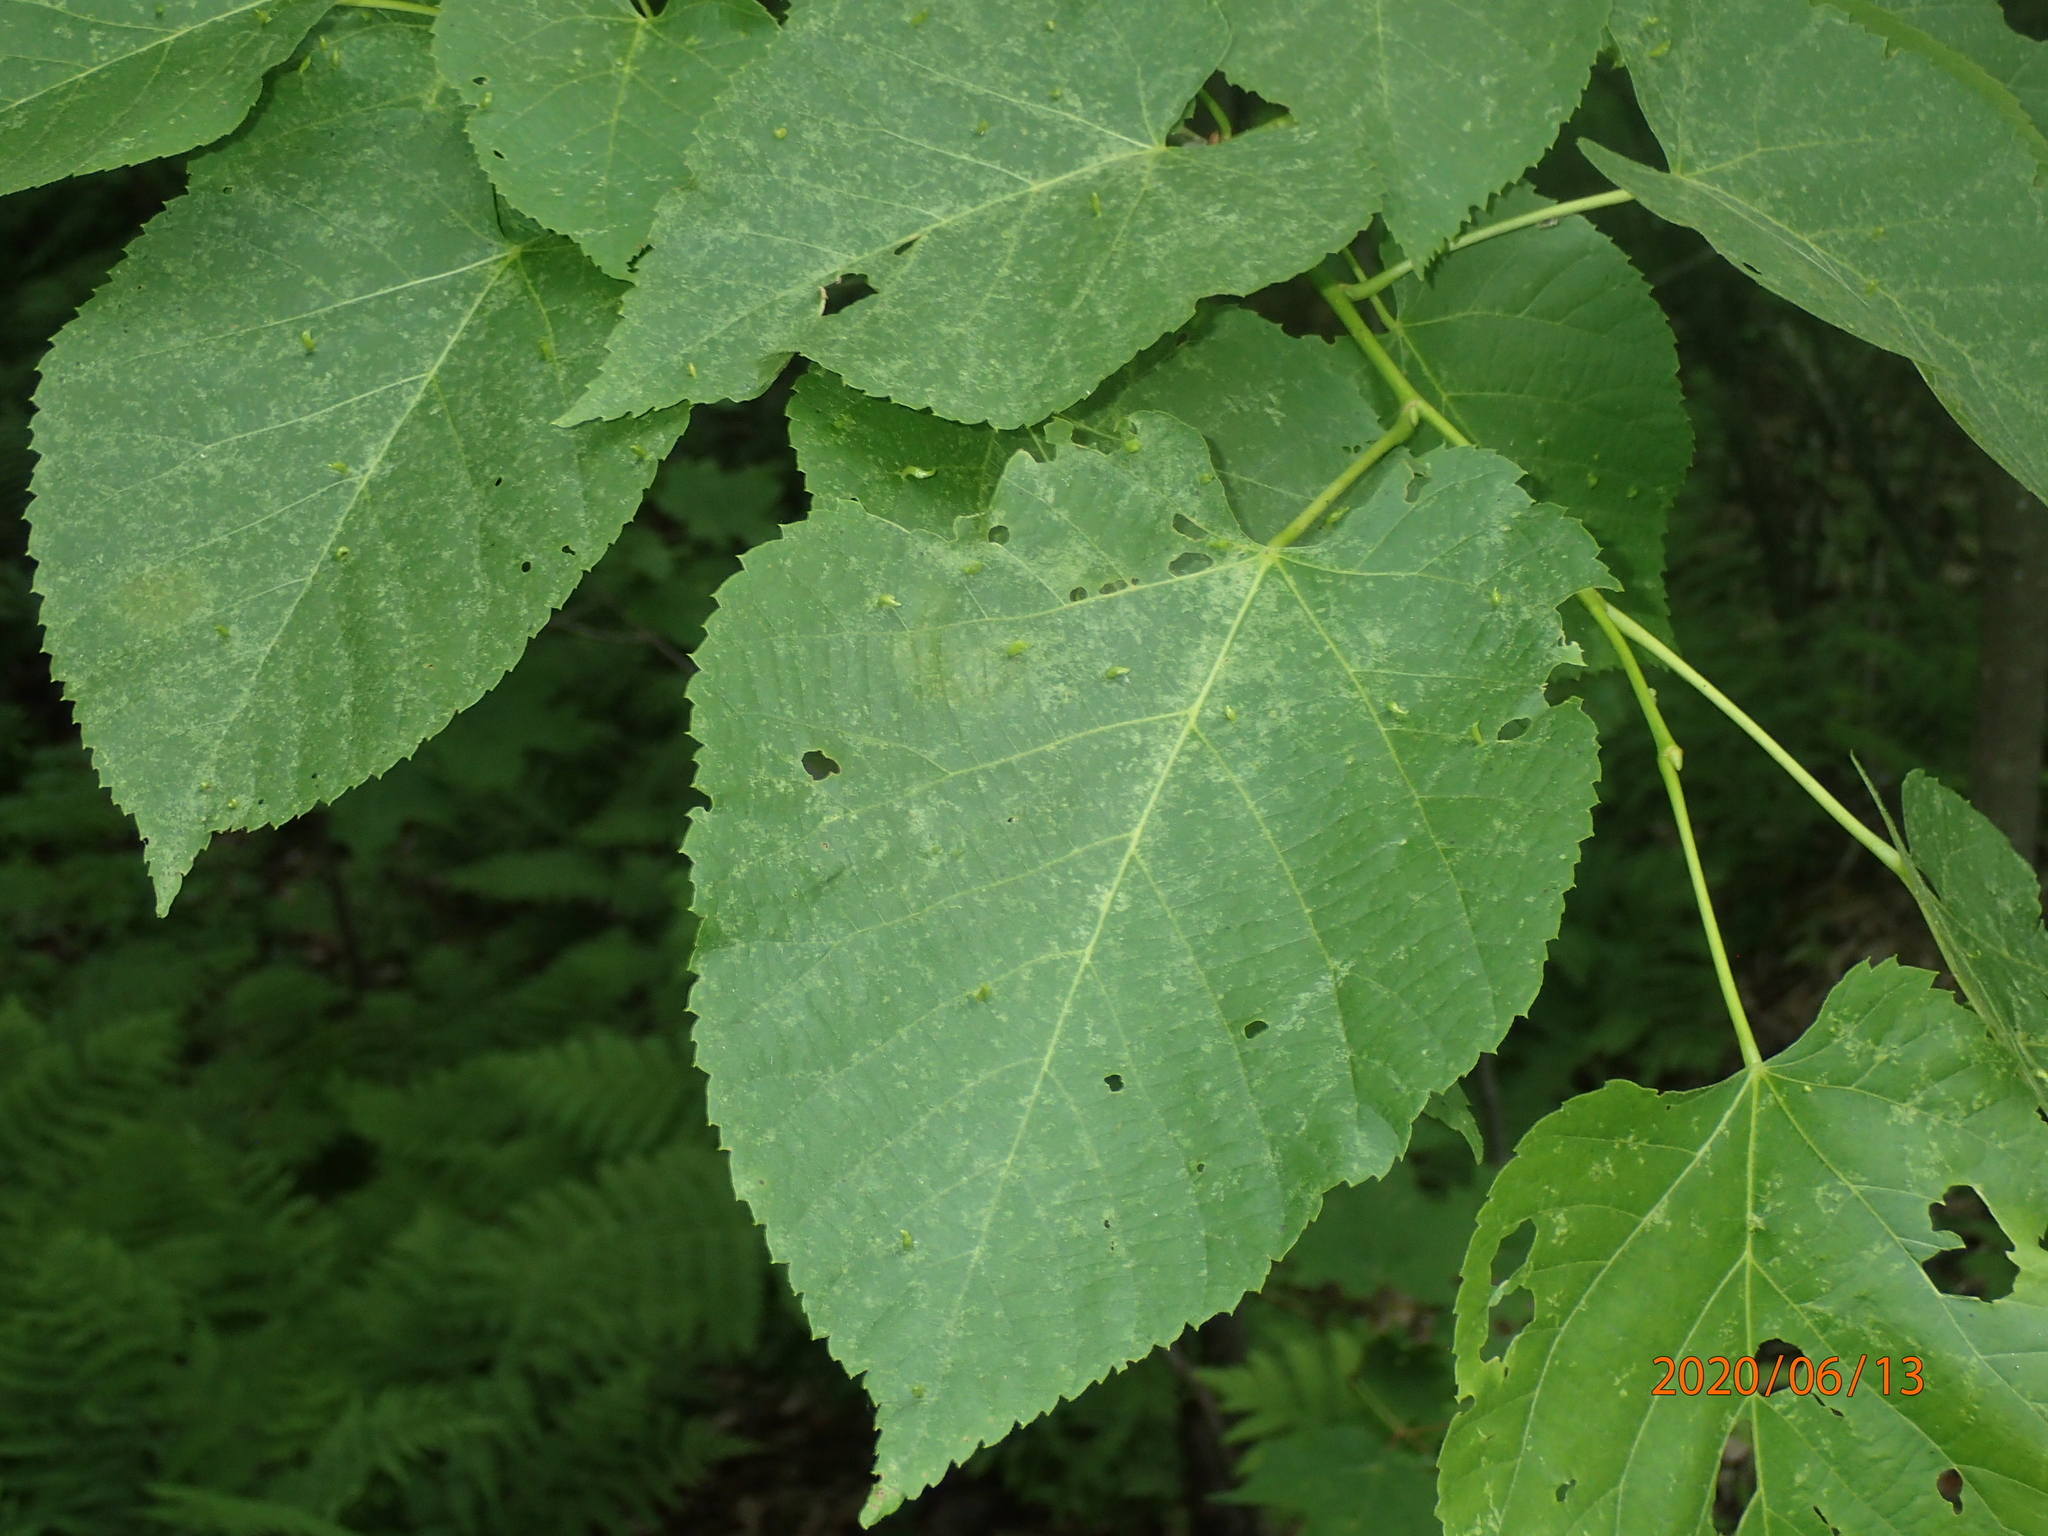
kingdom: Plantae
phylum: Tracheophyta
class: Magnoliopsida
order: Malvales
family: Malvaceae
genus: Tilia
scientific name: Tilia americana
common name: Basswood
